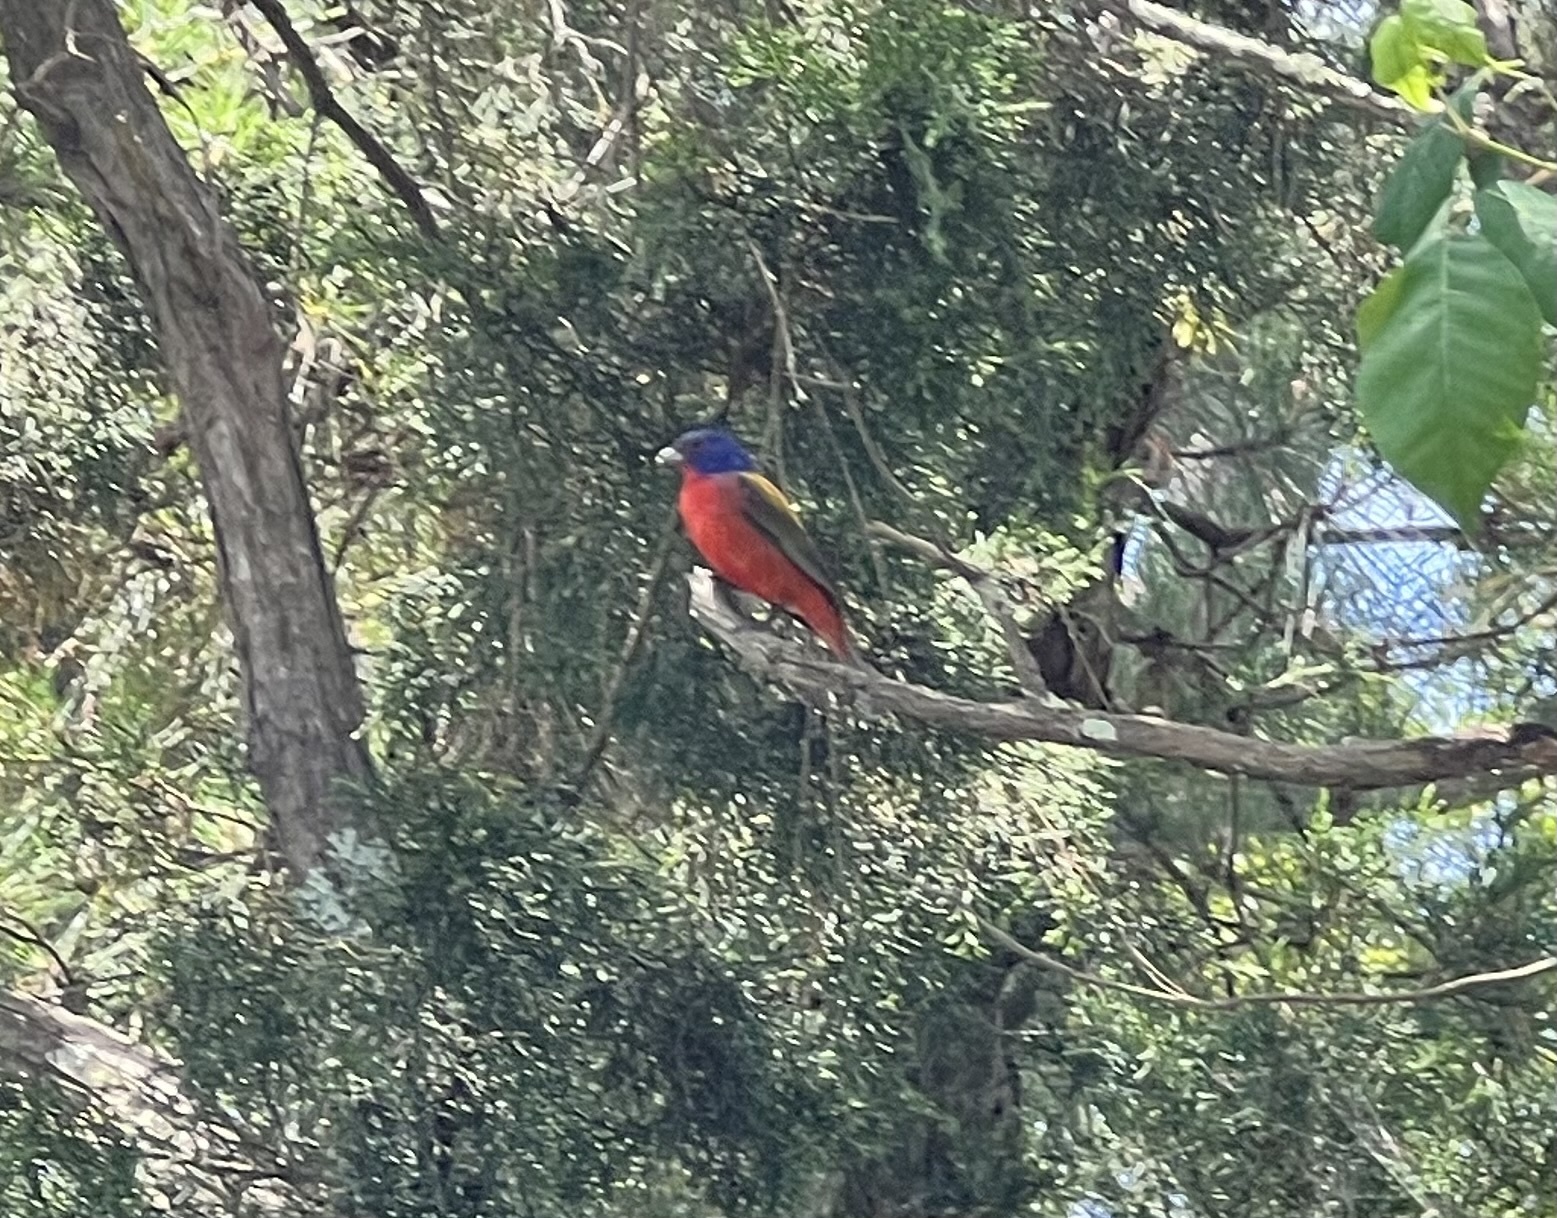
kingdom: Animalia
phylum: Chordata
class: Aves
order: Passeriformes
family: Cardinalidae
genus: Passerina
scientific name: Passerina ciris
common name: Painted bunting
